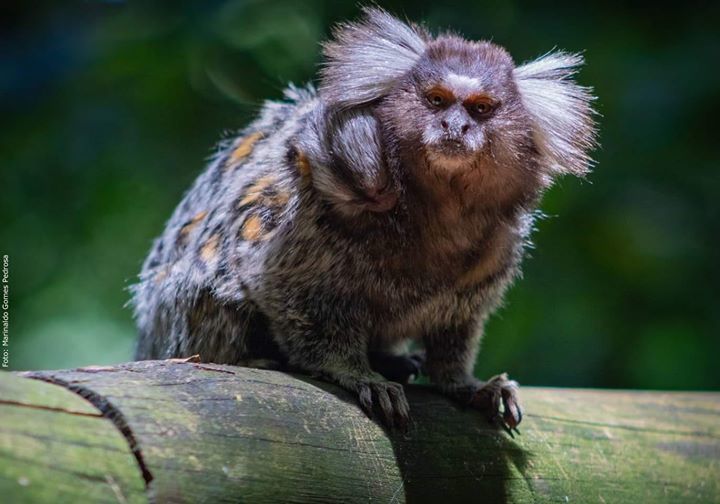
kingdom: Animalia
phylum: Chordata
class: Mammalia
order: Primates
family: Callitrichidae
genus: Callithrix
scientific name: Callithrix jacchus
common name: Common marmoset
